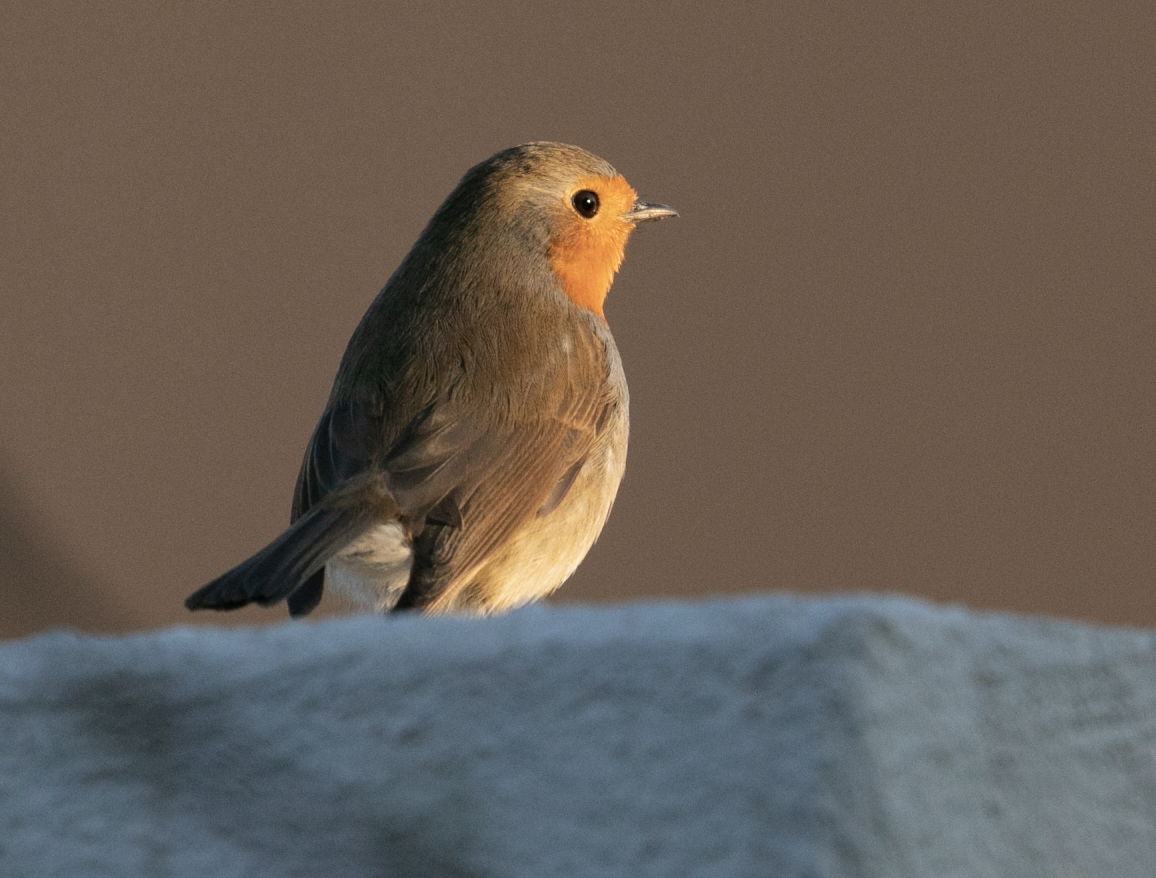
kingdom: Animalia
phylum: Chordata
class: Aves
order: Passeriformes
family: Muscicapidae
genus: Erithacus
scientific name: Erithacus rubecula
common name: European robin
